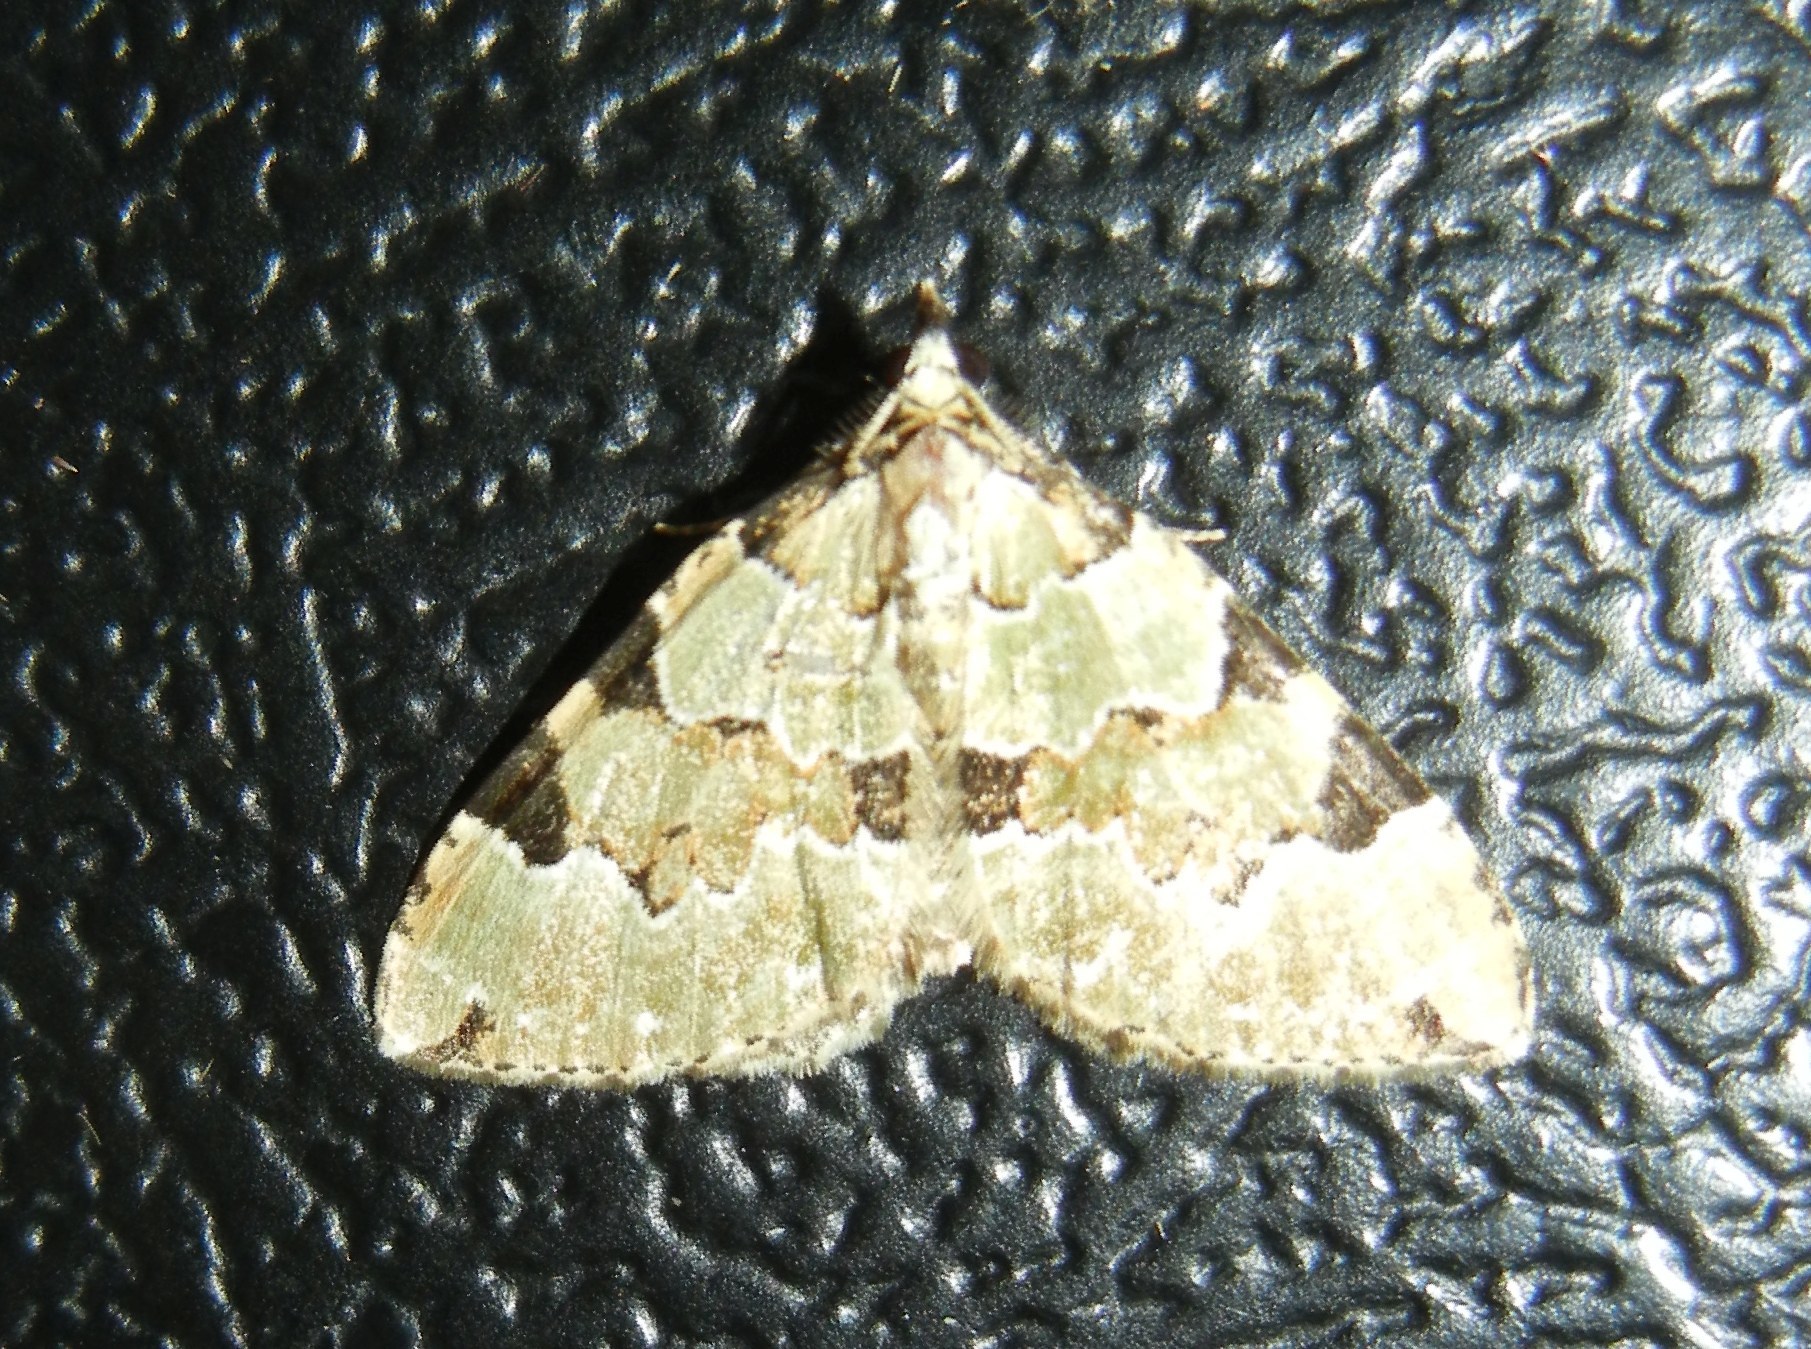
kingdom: Animalia
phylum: Arthropoda
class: Insecta
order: Lepidoptera
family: Geometridae
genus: Colostygia
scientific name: Colostygia pectinataria
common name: Green carpet
